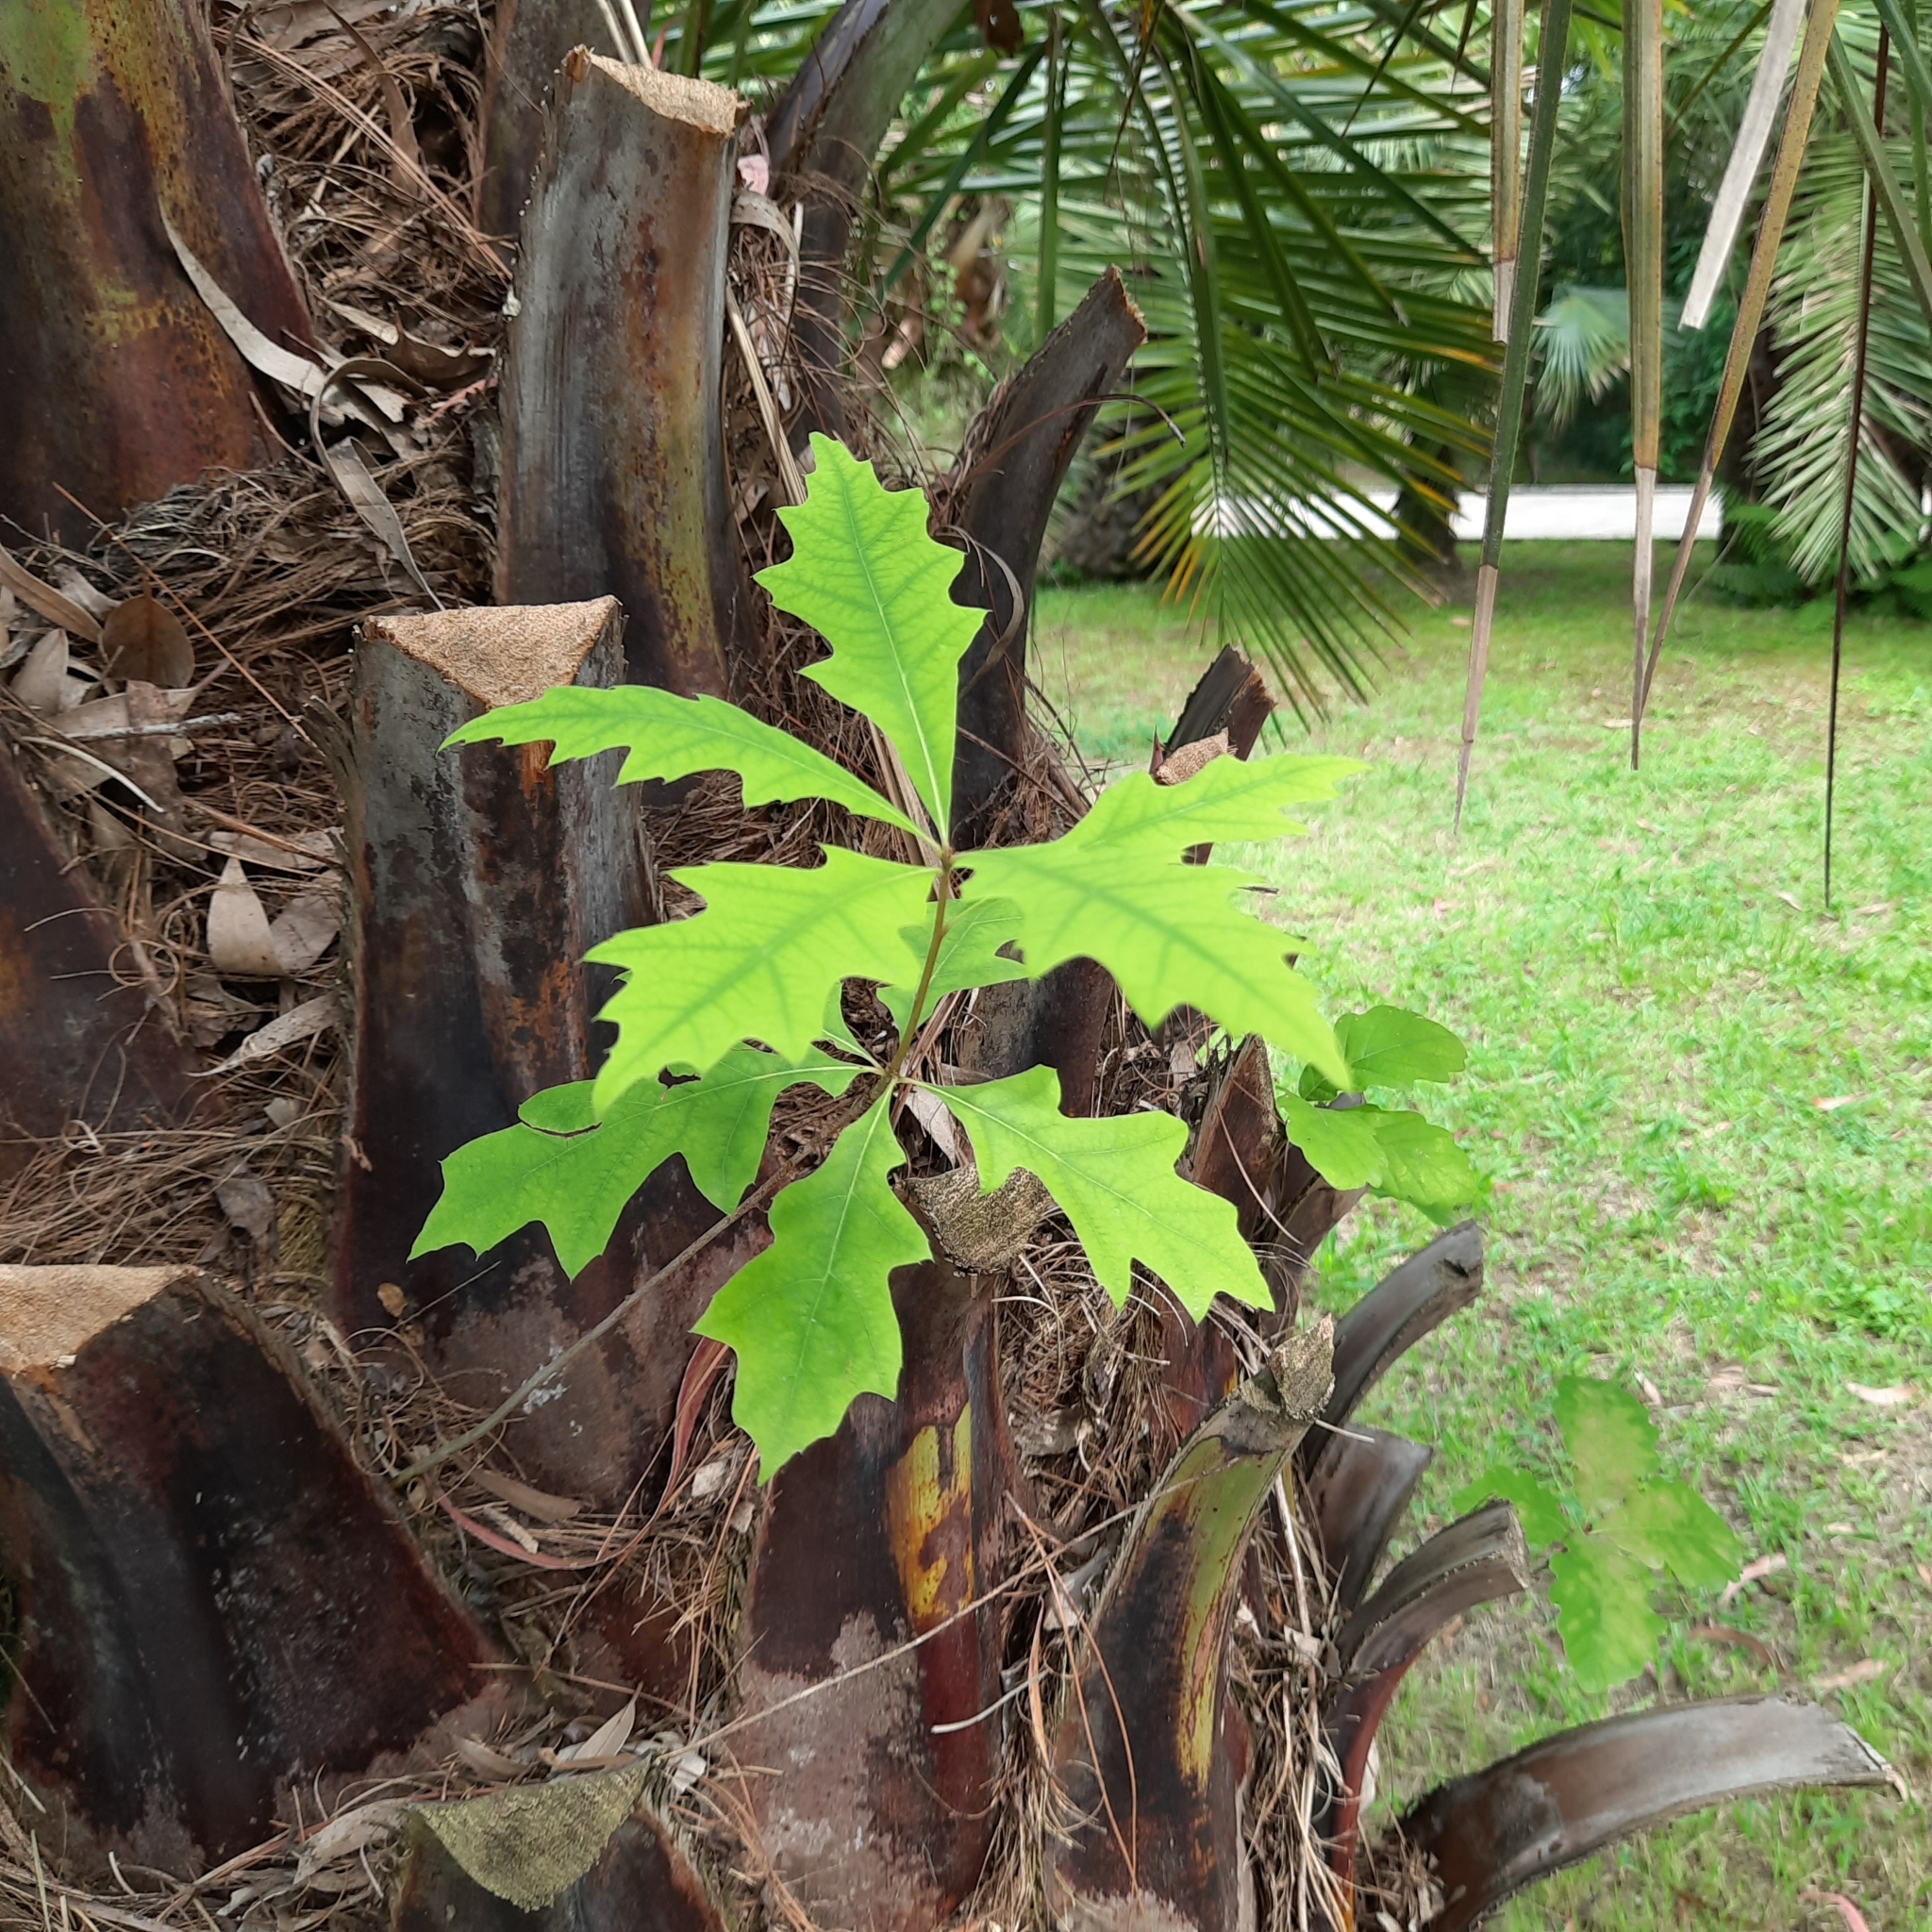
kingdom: Plantae
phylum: Tracheophyta
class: Magnoliopsida
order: Fagales
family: Fagaceae
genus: Quercus
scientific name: Quercus rubra
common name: Red oak
